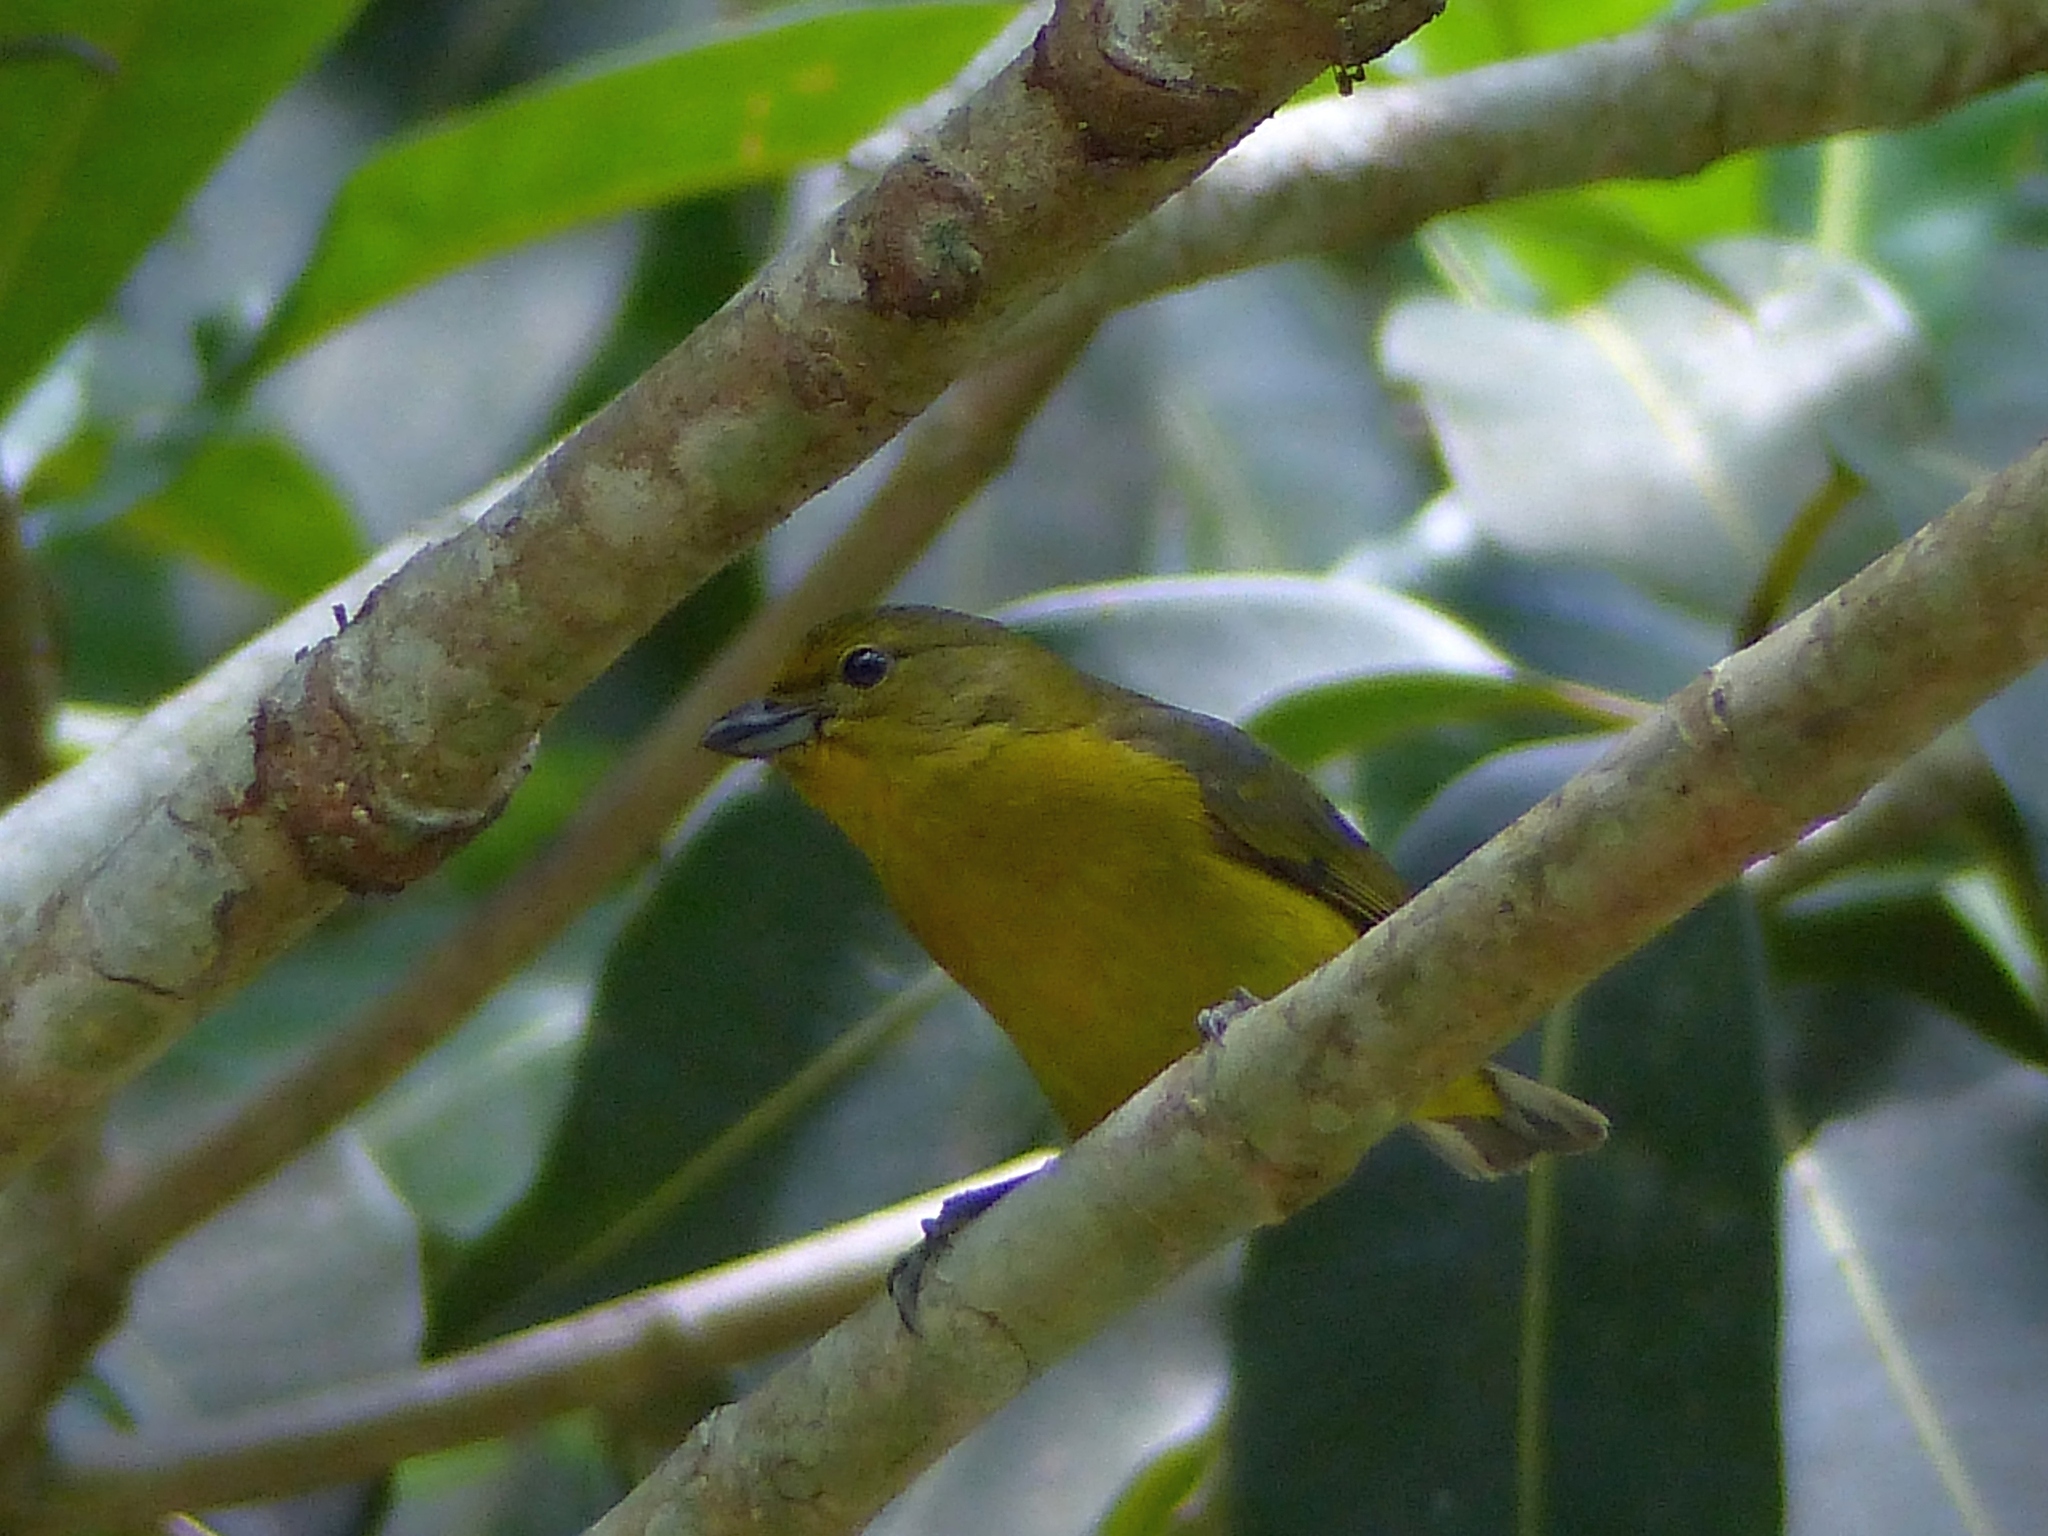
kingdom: Animalia
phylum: Chordata
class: Aves
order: Passeriformes
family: Fringillidae
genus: Euphonia
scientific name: Euphonia violacea
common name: Violaceous euphonia
